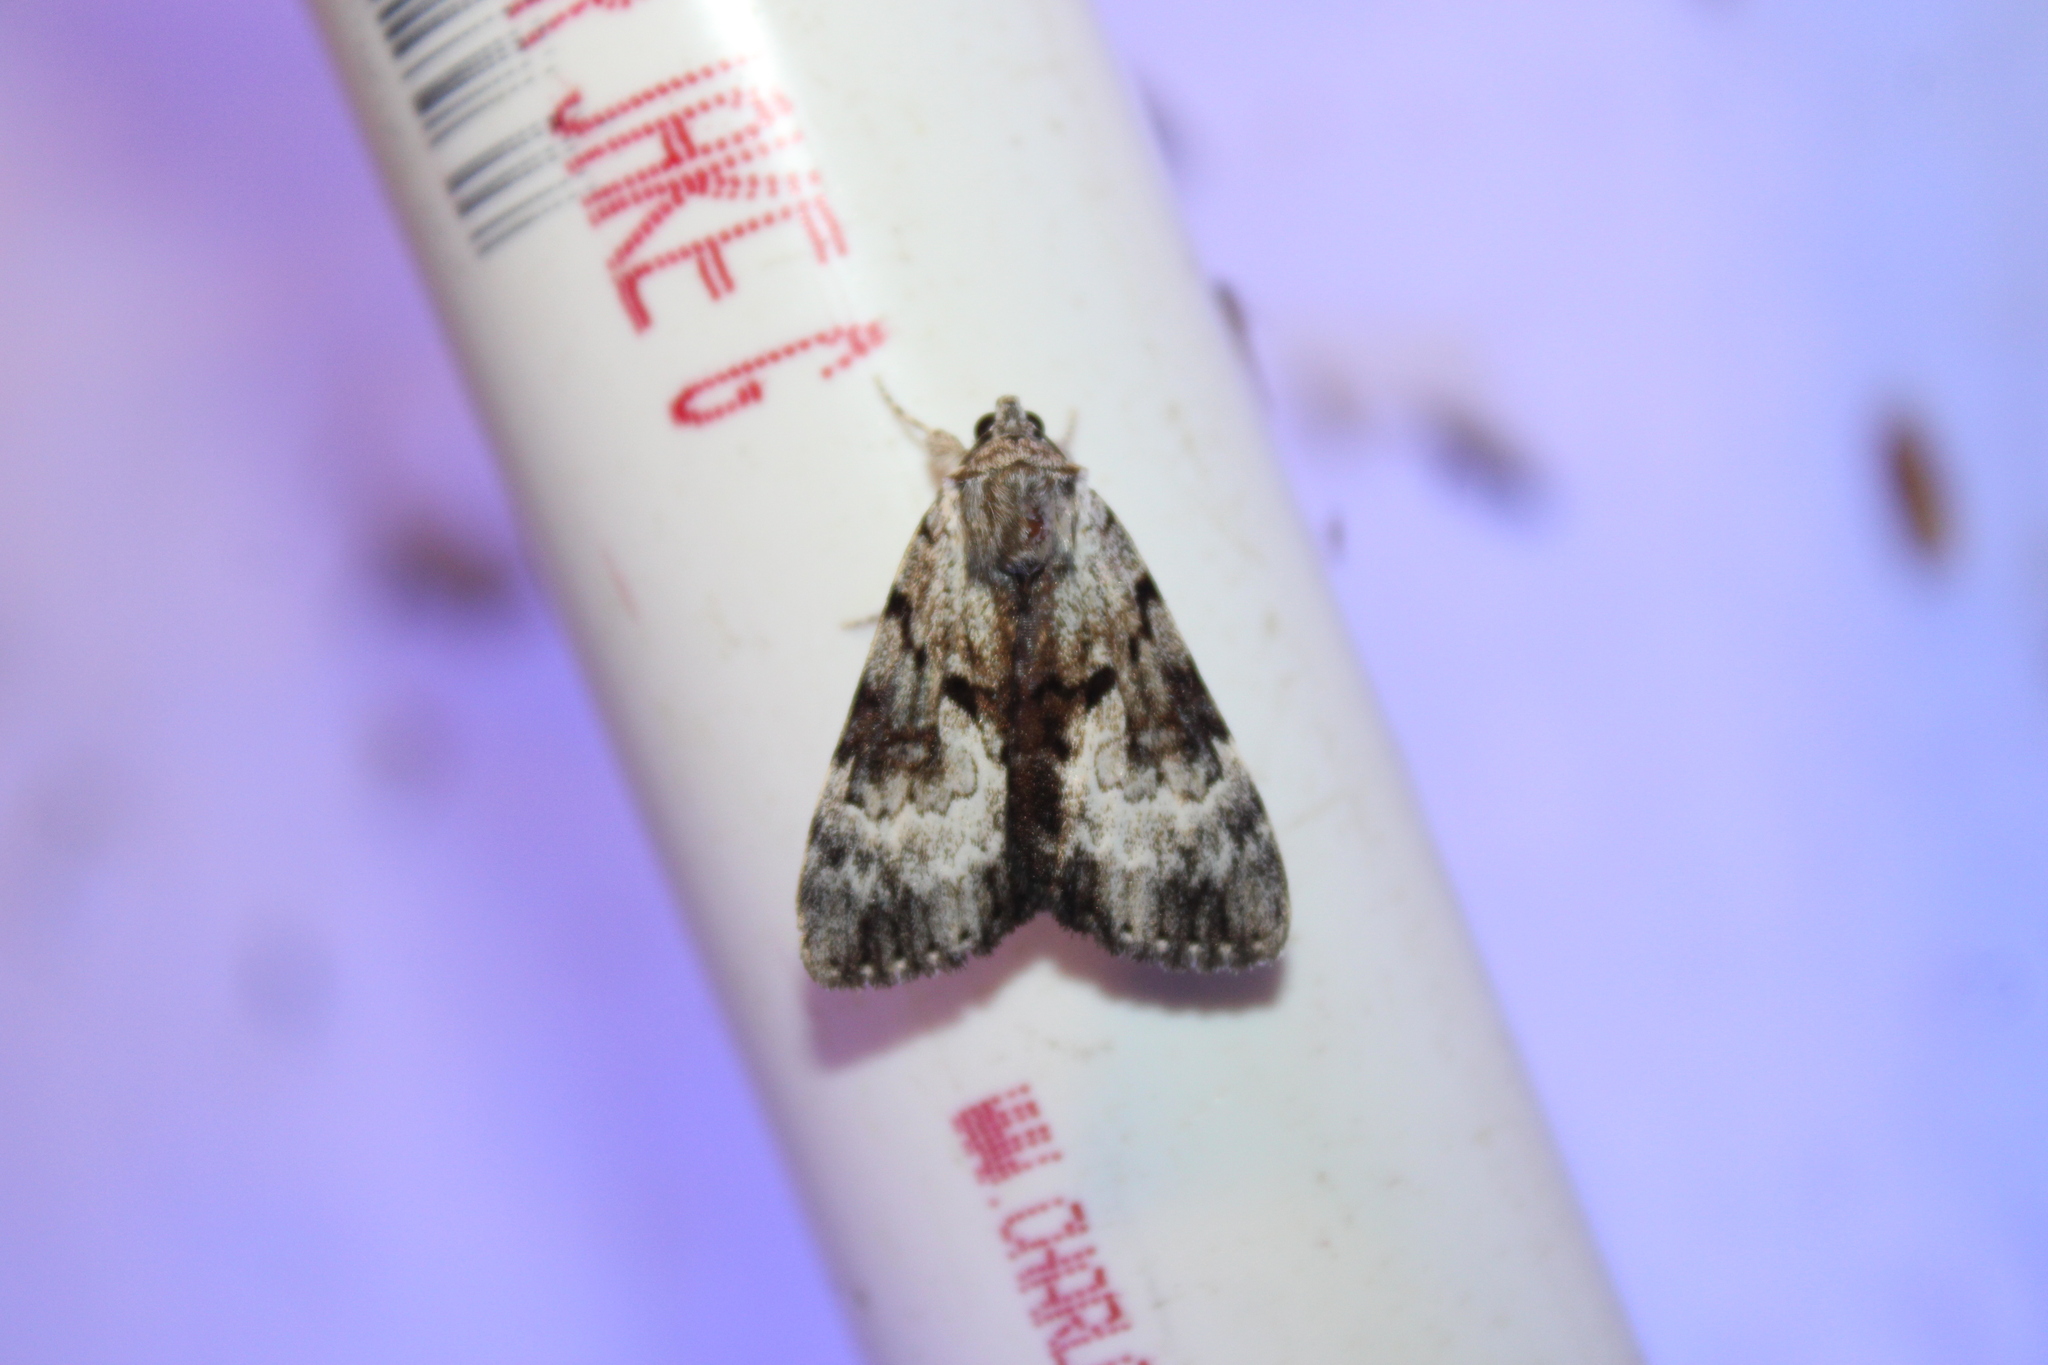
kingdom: Animalia
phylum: Arthropoda
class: Insecta
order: Lepidoptera
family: Erebidae
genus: Catocala
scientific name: Catocala andromedae
